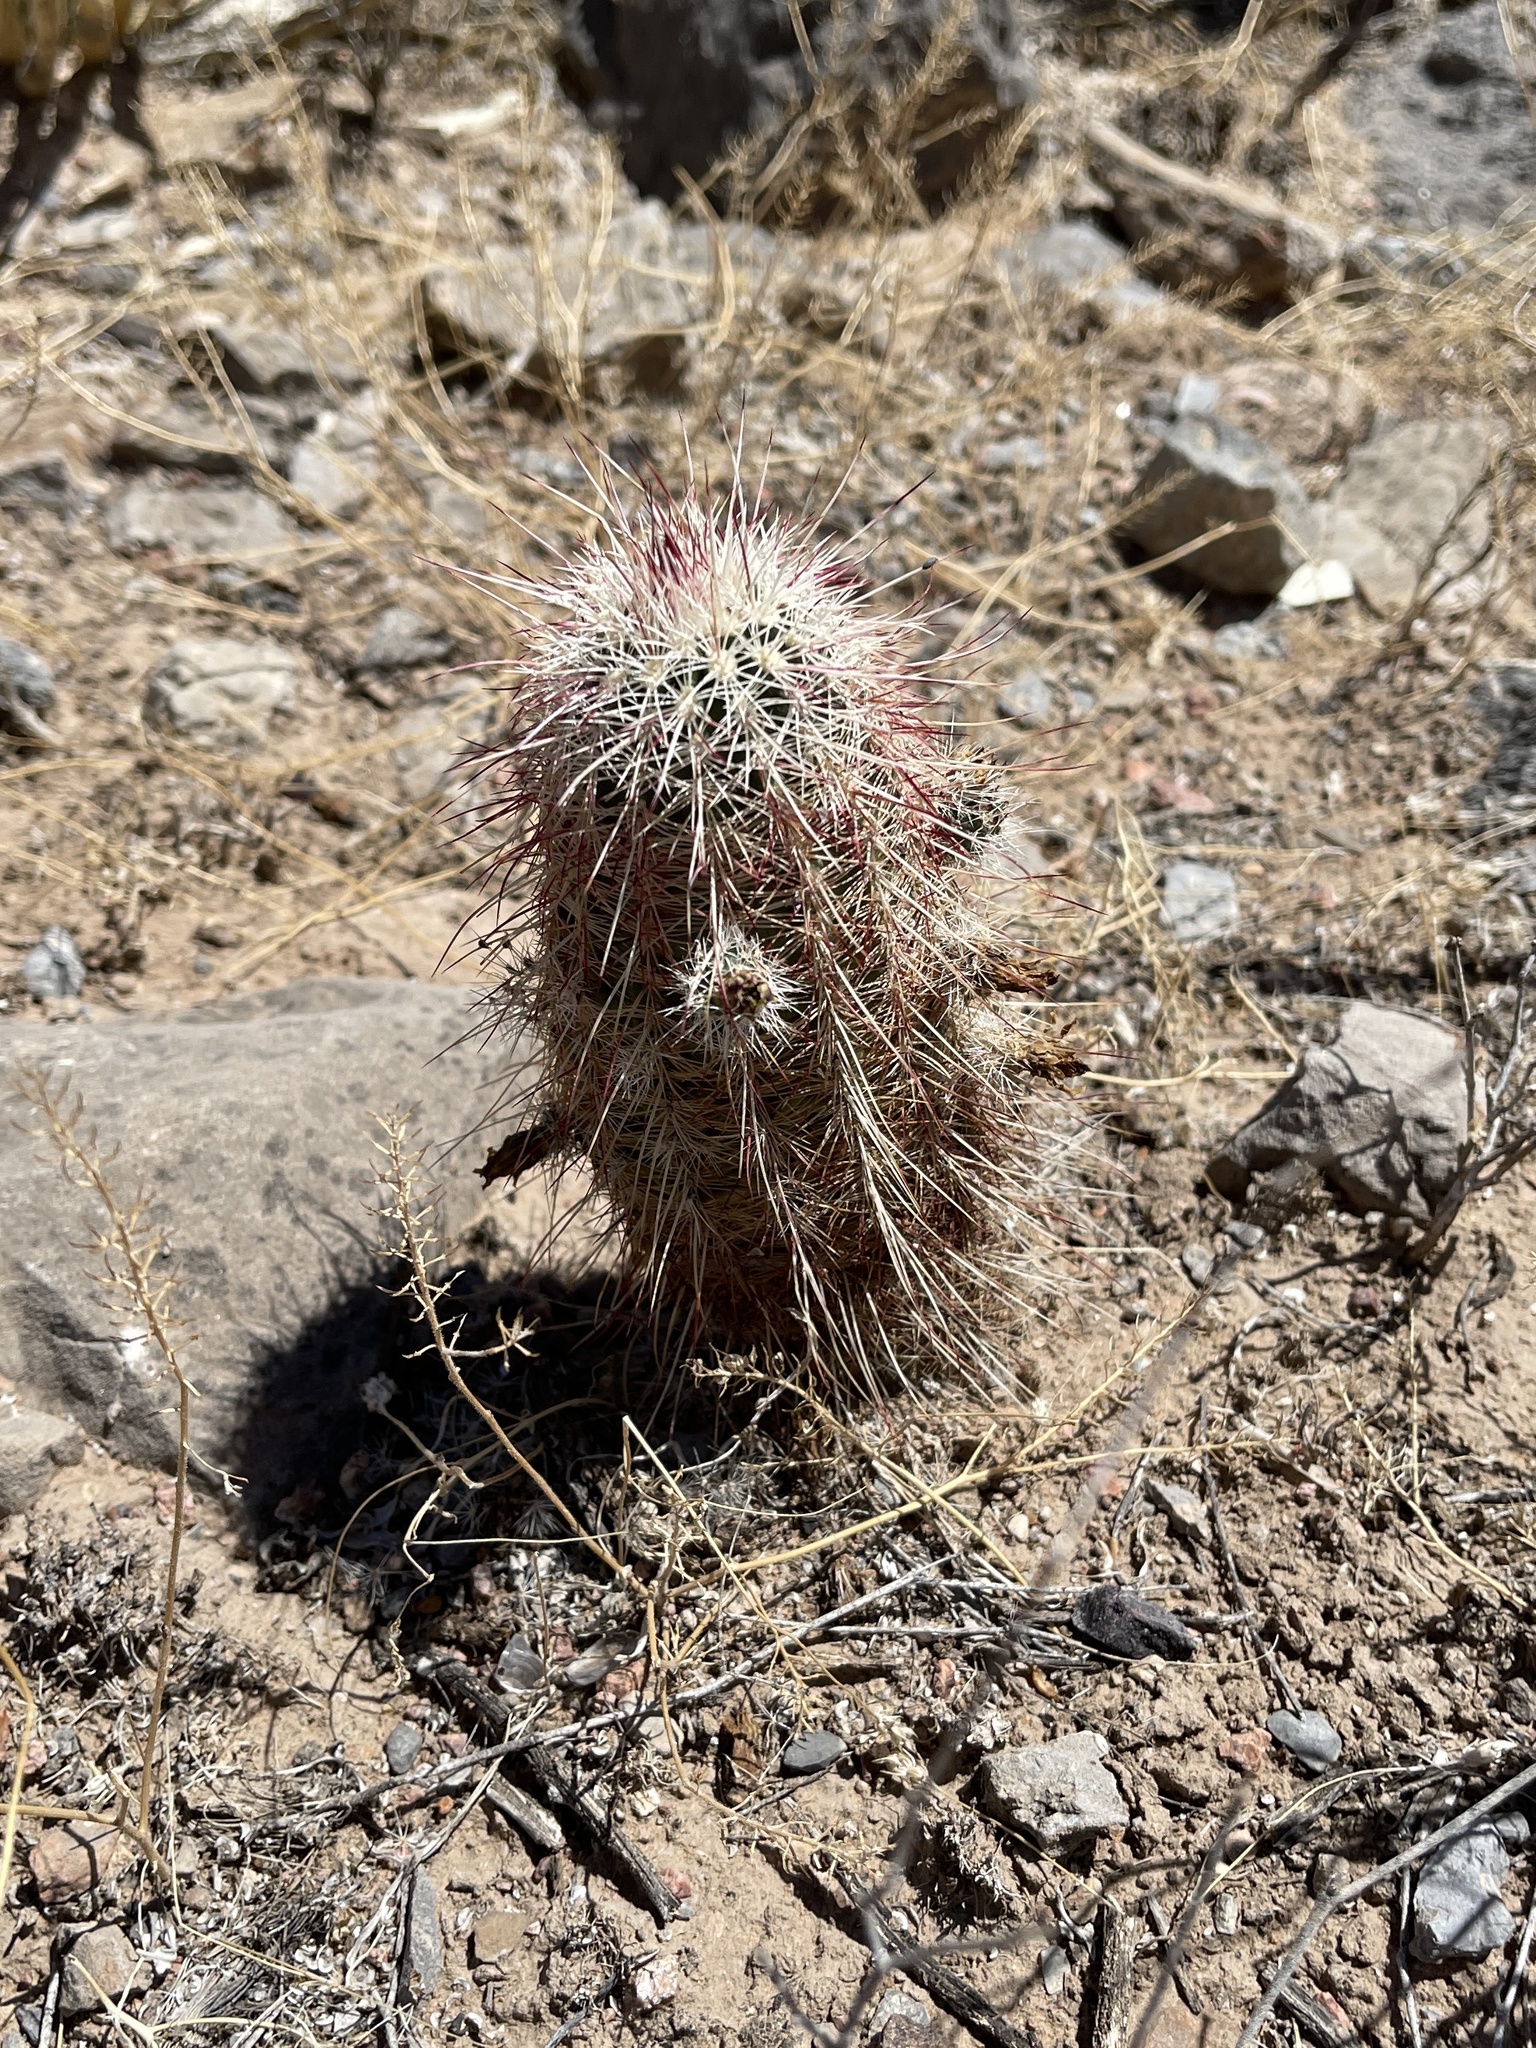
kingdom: Plantae
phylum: Tracheophyta
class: Magnoliopsida
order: Caryophyllales
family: Cactaceae
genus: Echinocereus
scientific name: Echinocereus viridiflorus
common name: Nylon hedgehog cactus
